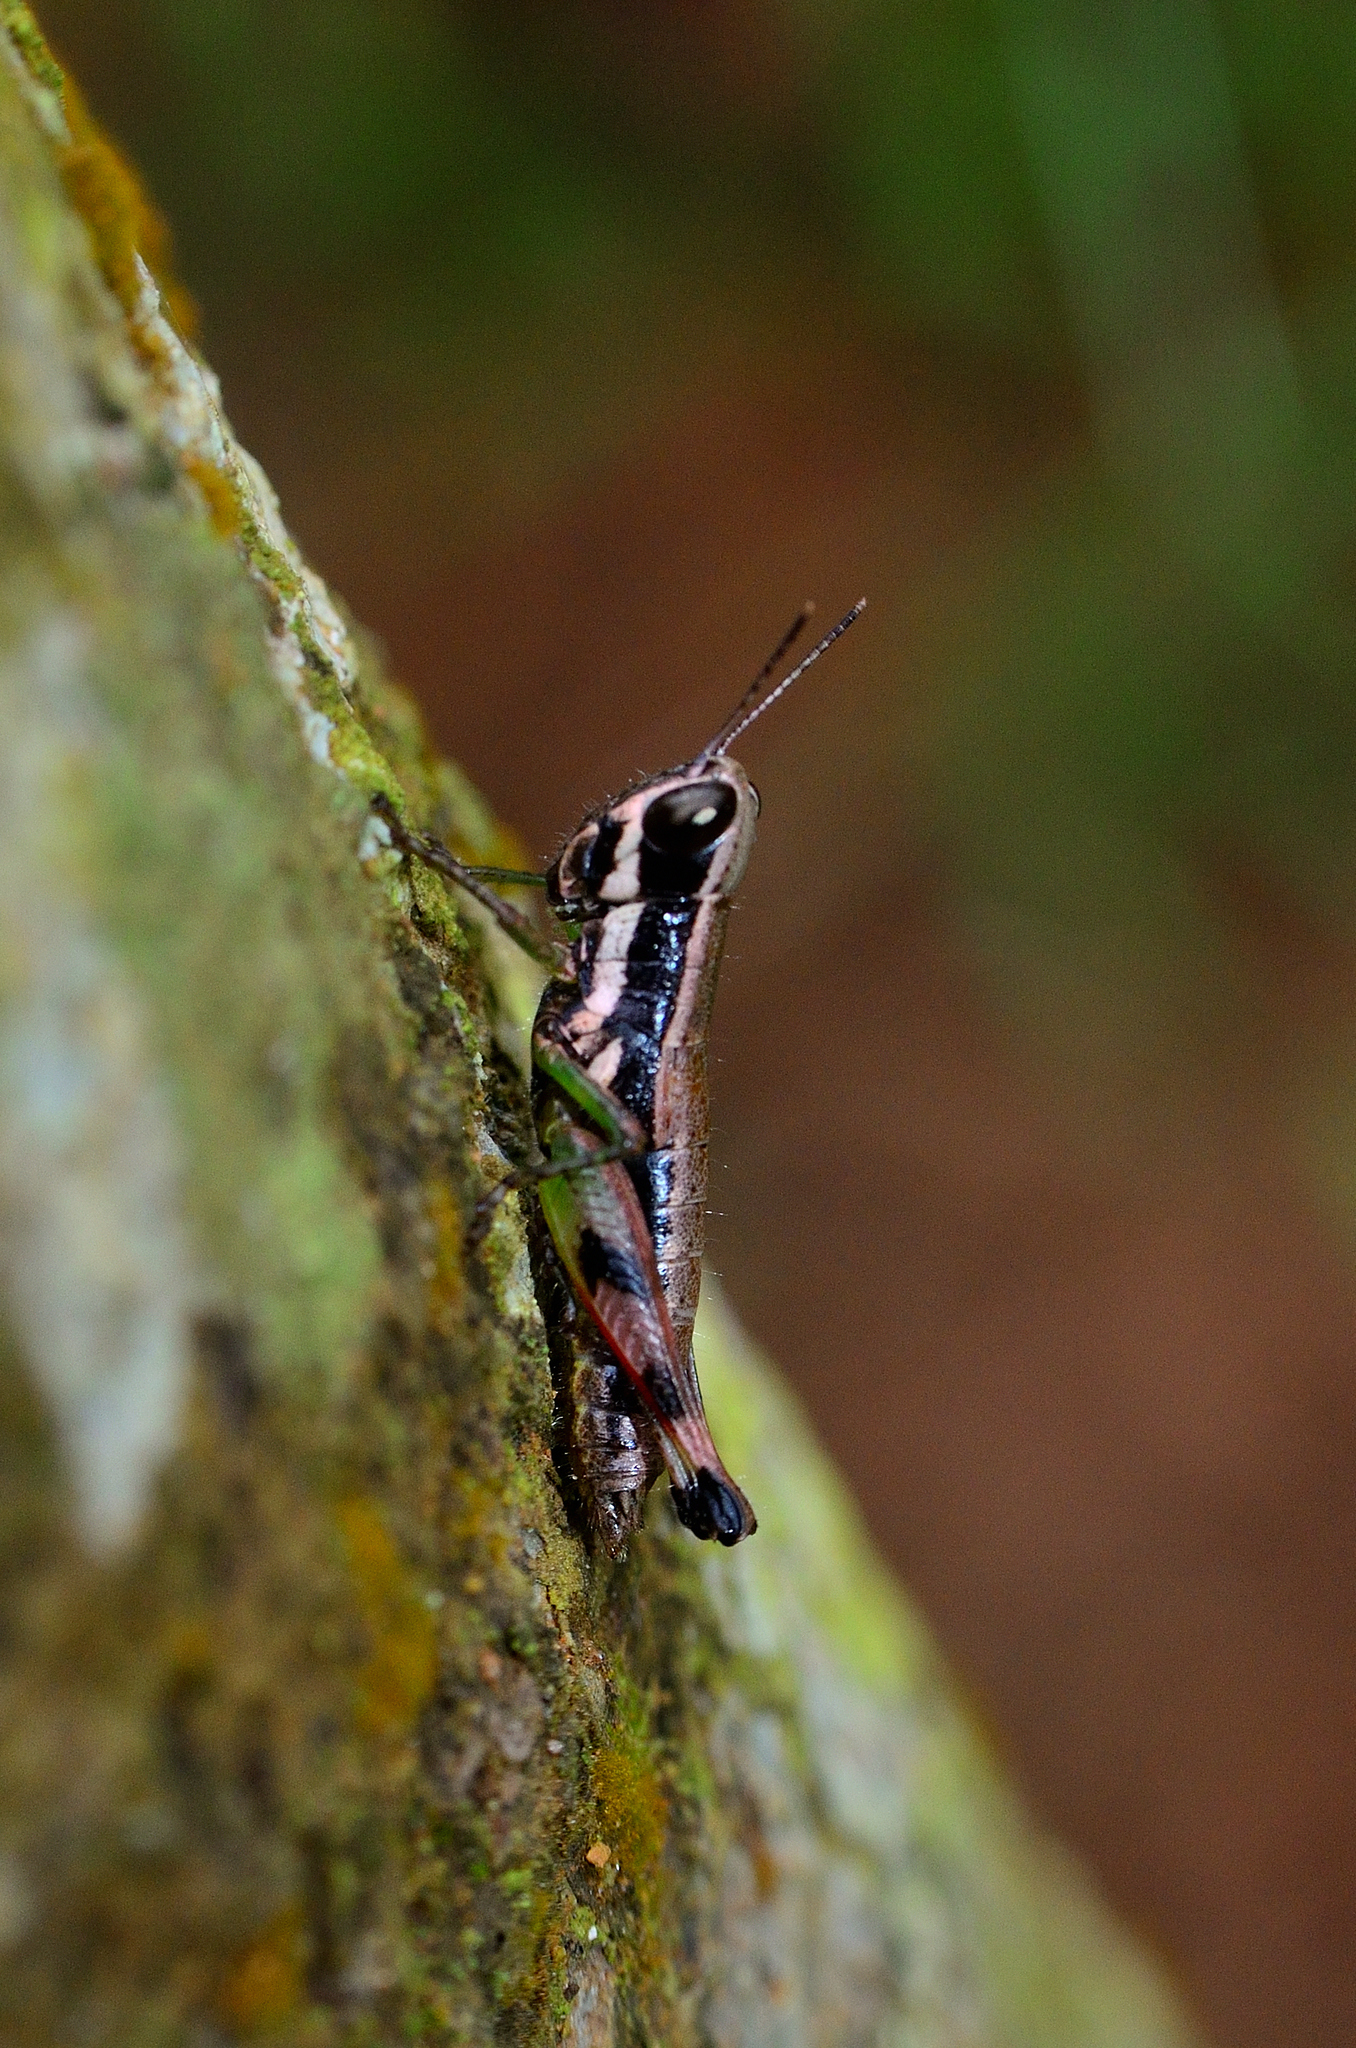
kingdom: Animalia
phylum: Arthropoda
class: Insecta
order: Orthoptera
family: Acrididae
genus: Chitaura
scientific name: Chitaura indica
